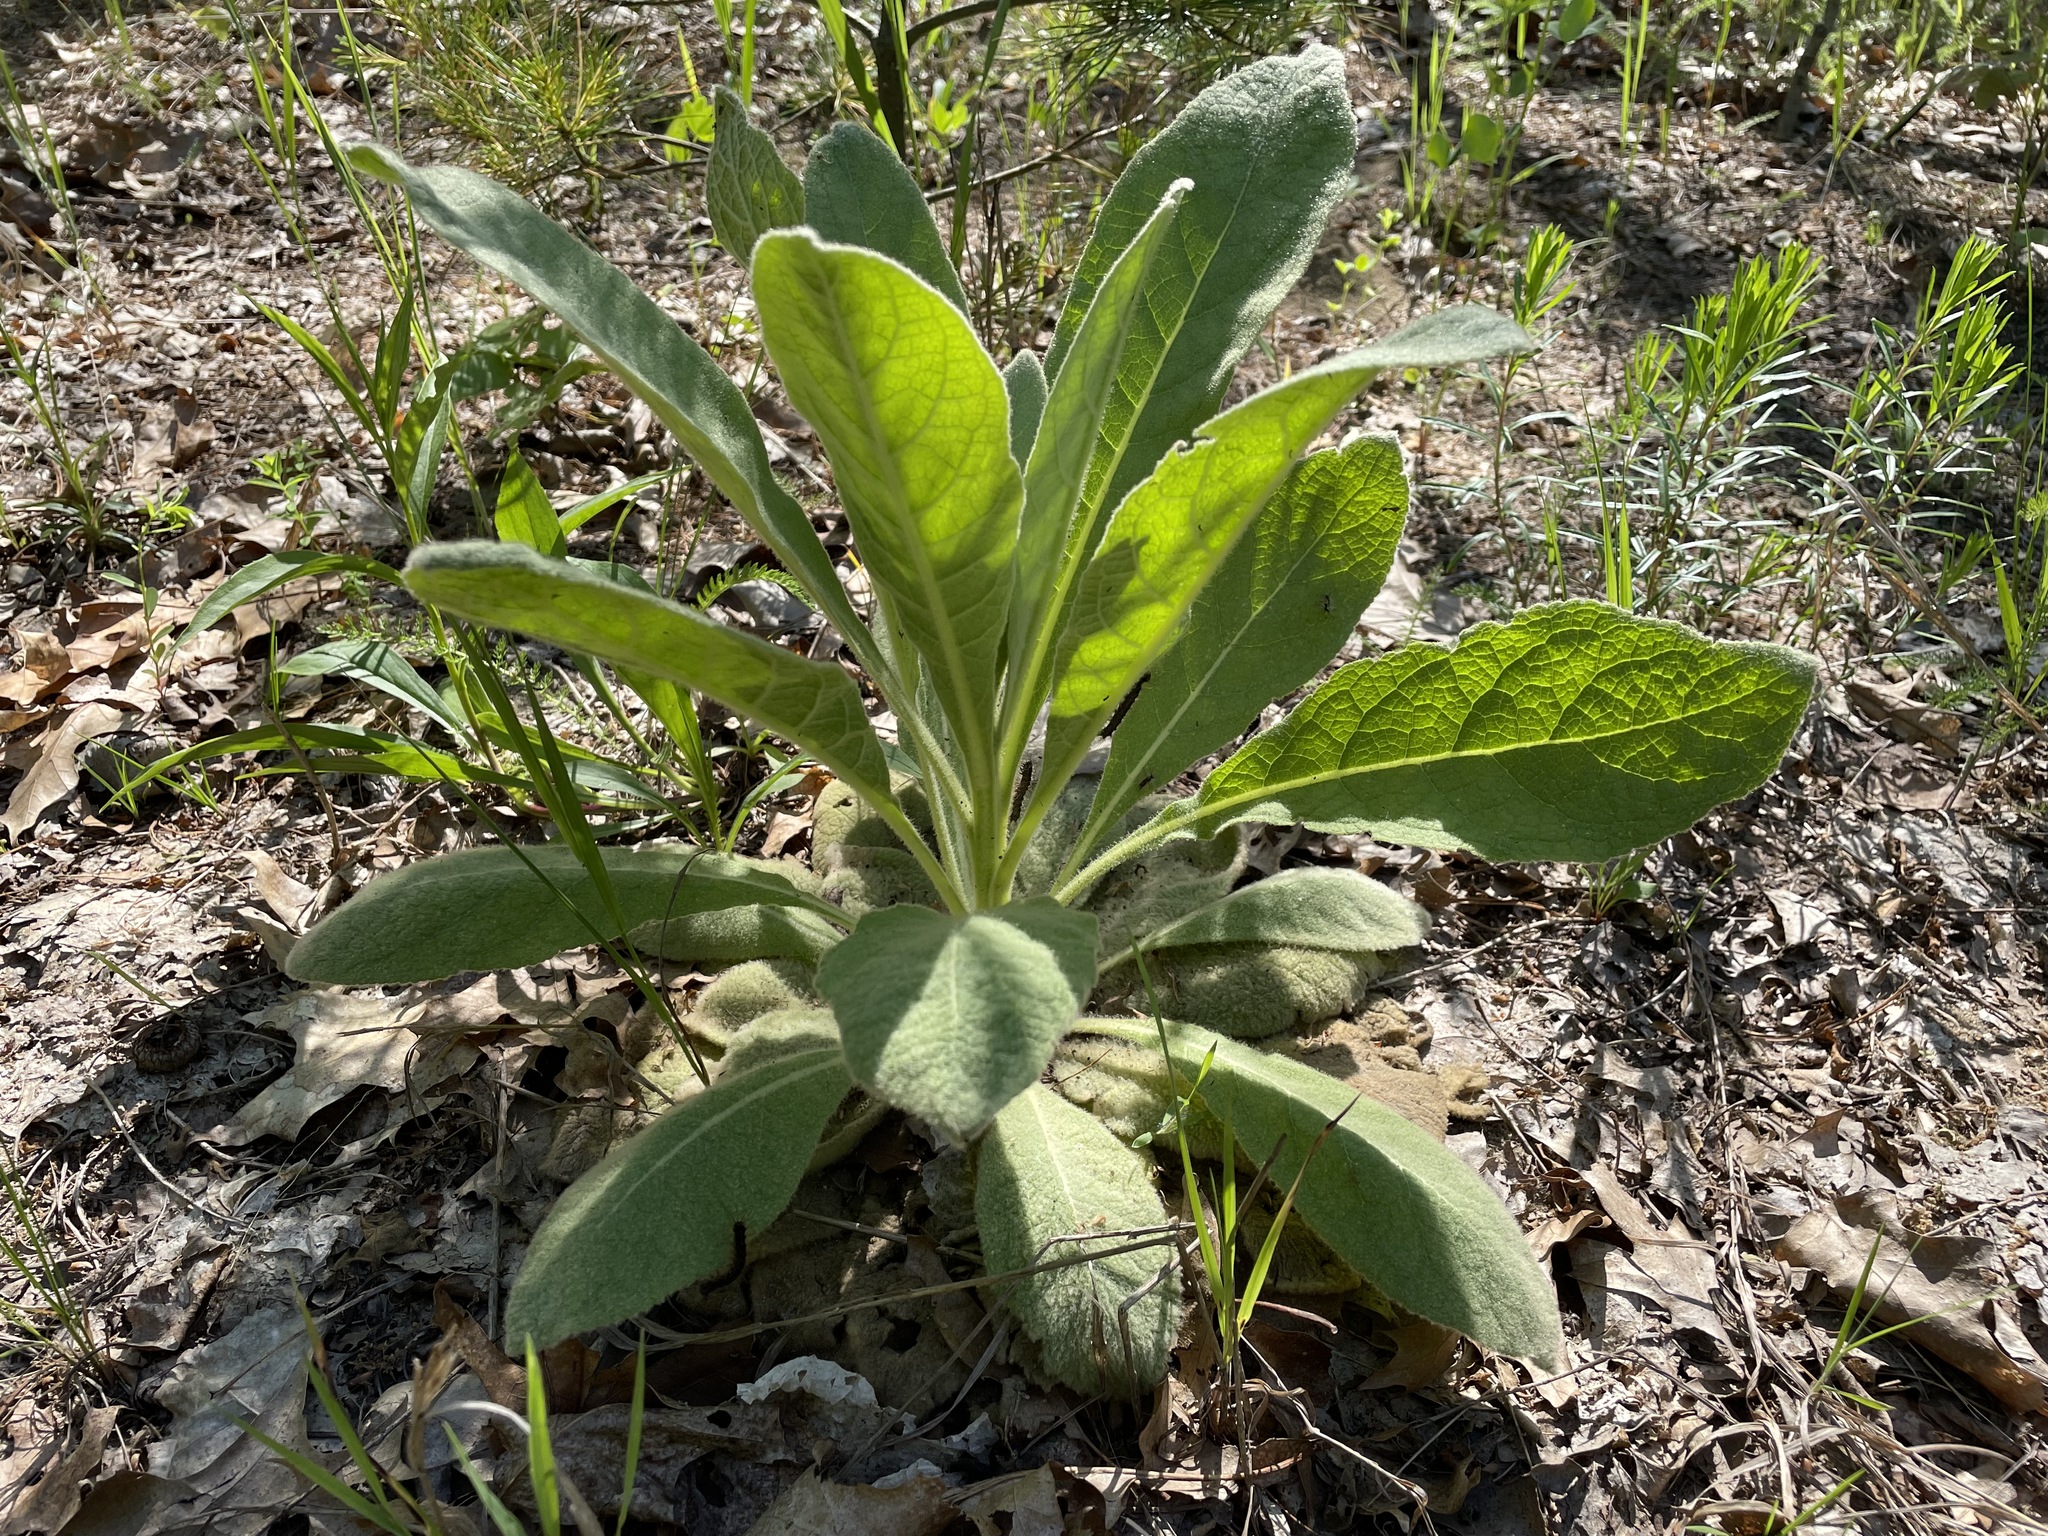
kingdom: Plantae
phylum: Tracheophyta
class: Magnoliopsida
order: Lamiales
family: Scrophulariaceae
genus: Verbascum
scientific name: Verbascum thapsus
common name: Common mullein
